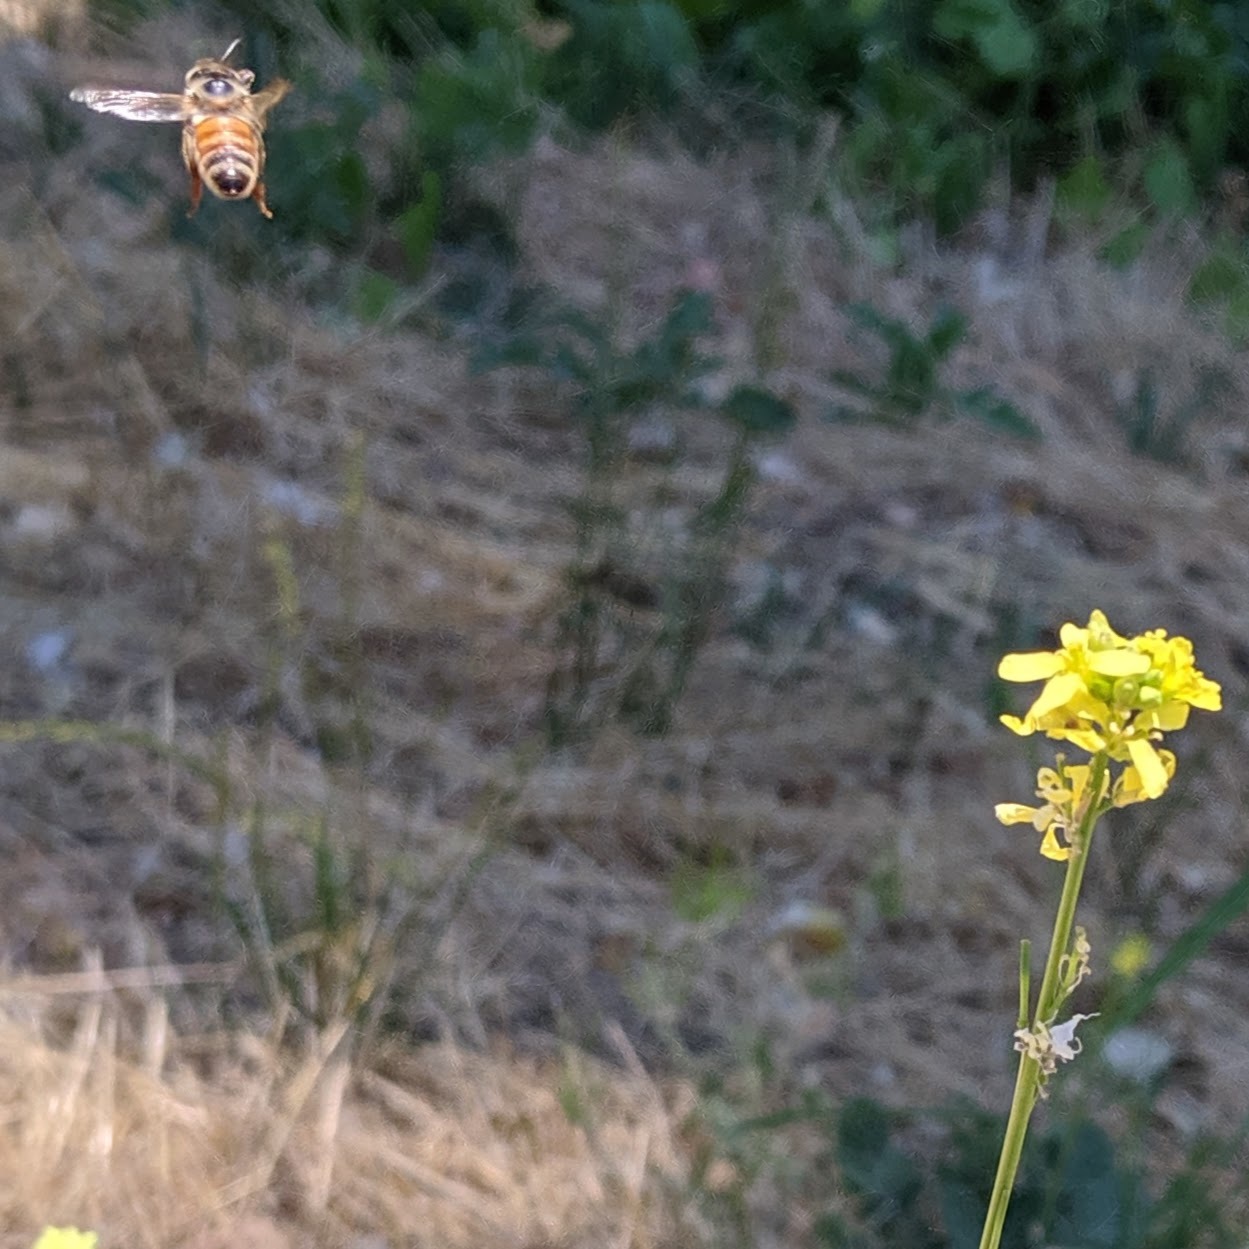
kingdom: Animalia
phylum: Arthropoda
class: Insecta
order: Hymenoptera
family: Apidae
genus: Apis
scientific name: Apis mellifera
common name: Honey bee
